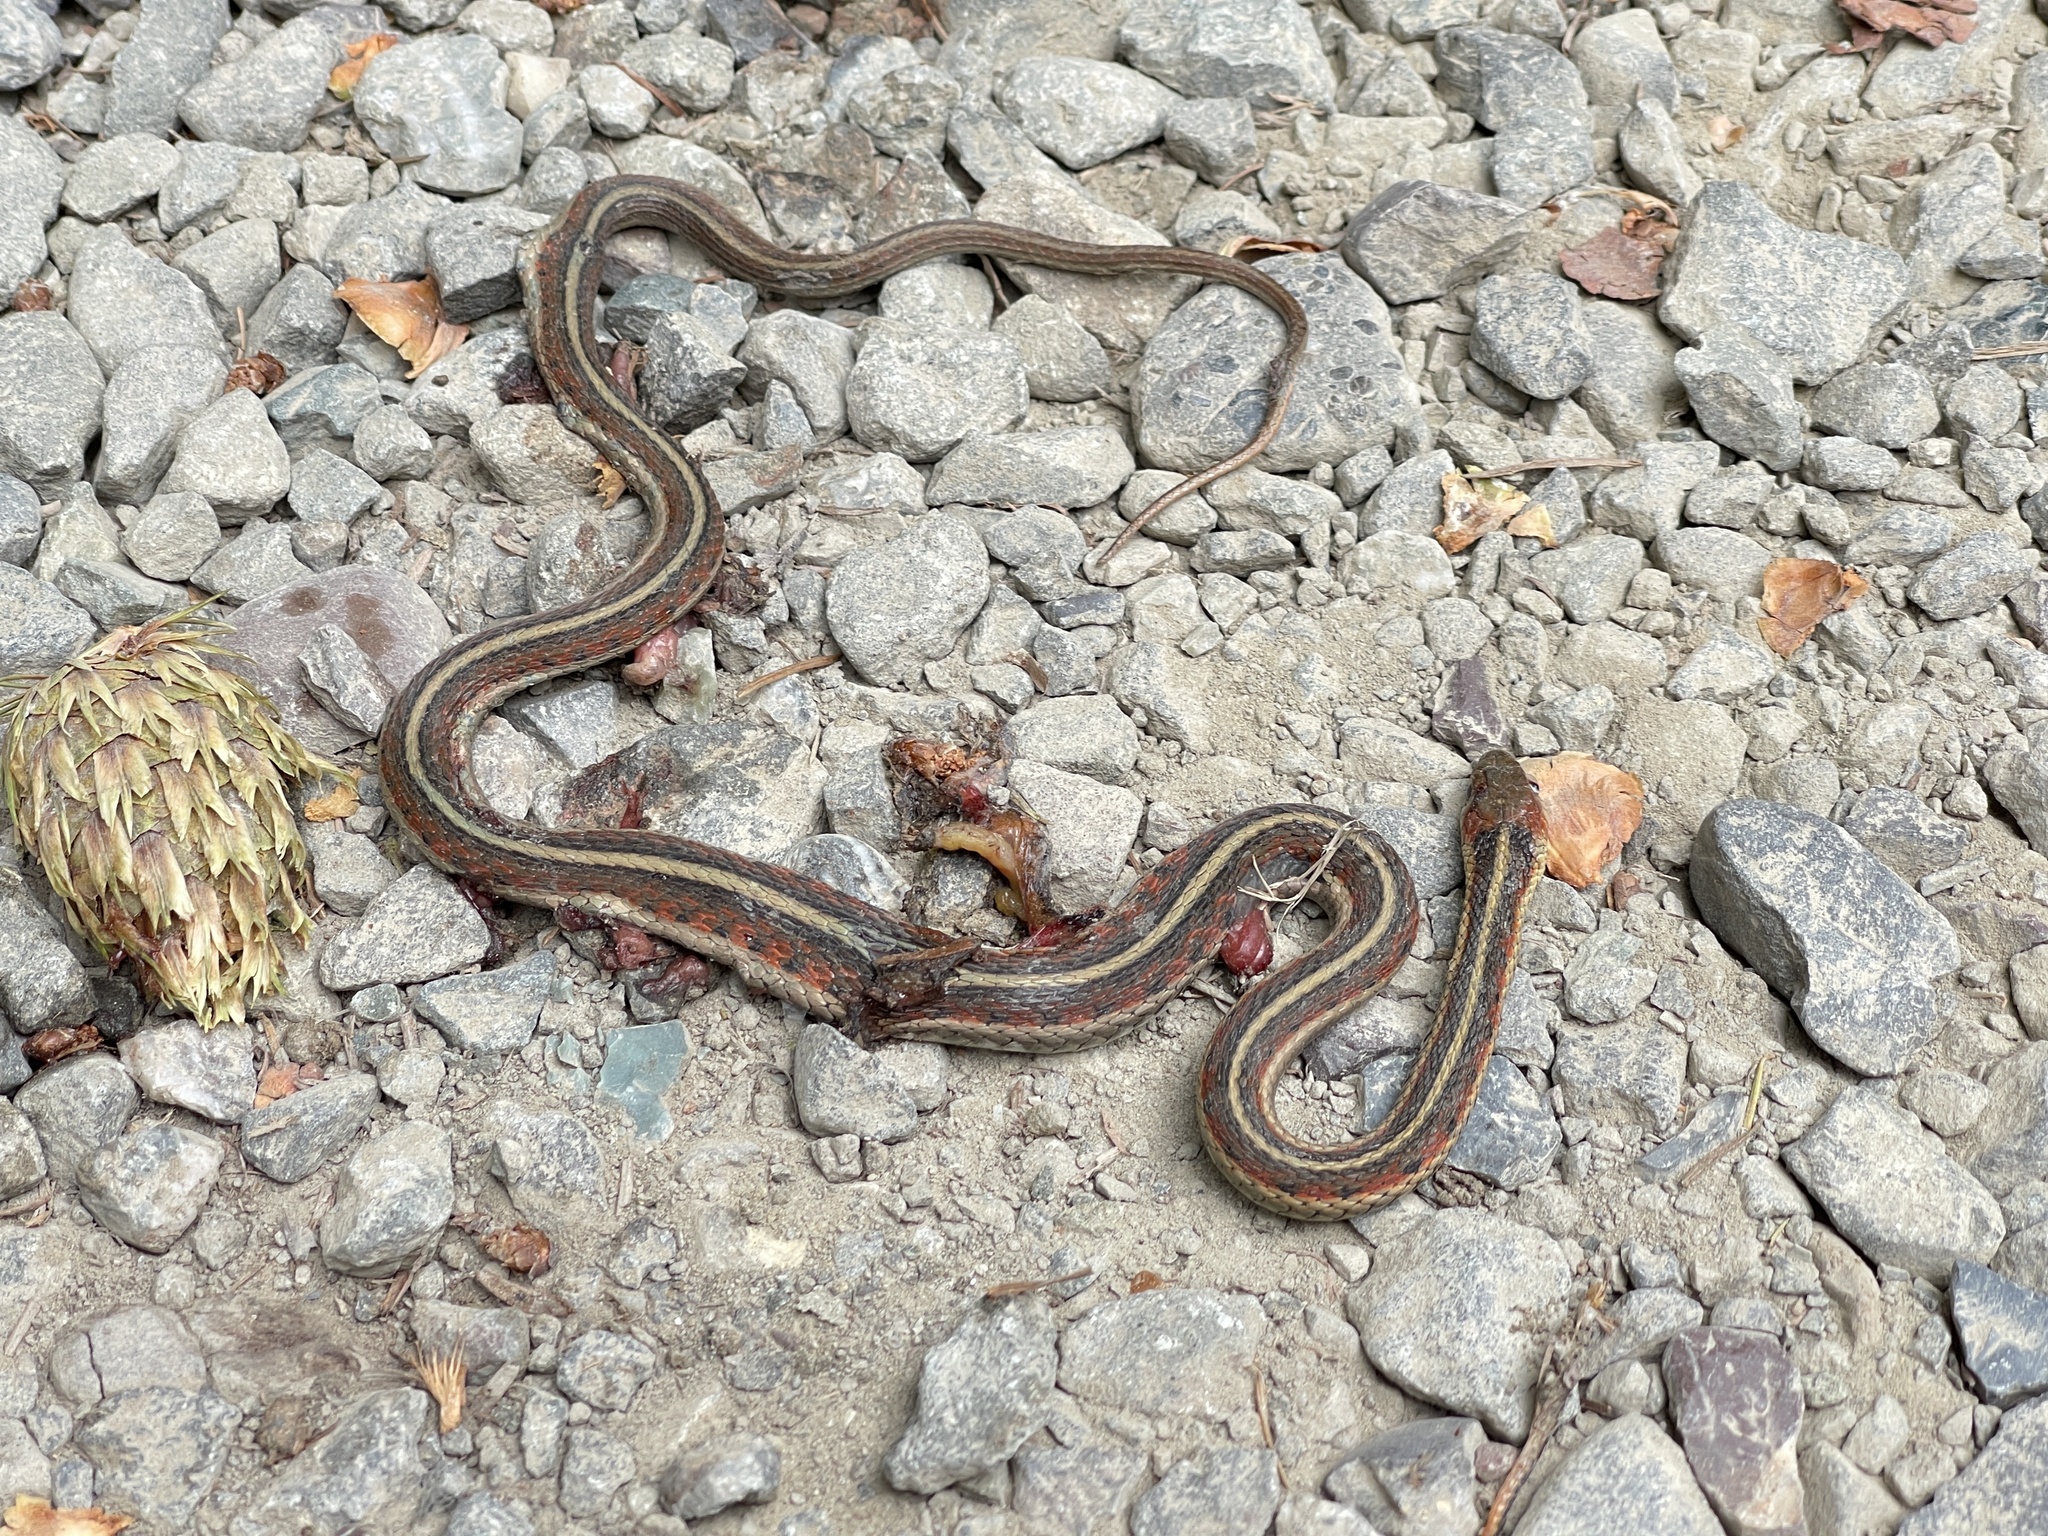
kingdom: Animalia
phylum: Chordata
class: Squamata
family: Colubridae
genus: Thamnophis
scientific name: Thamnophis sirtalis
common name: Common garter snake
